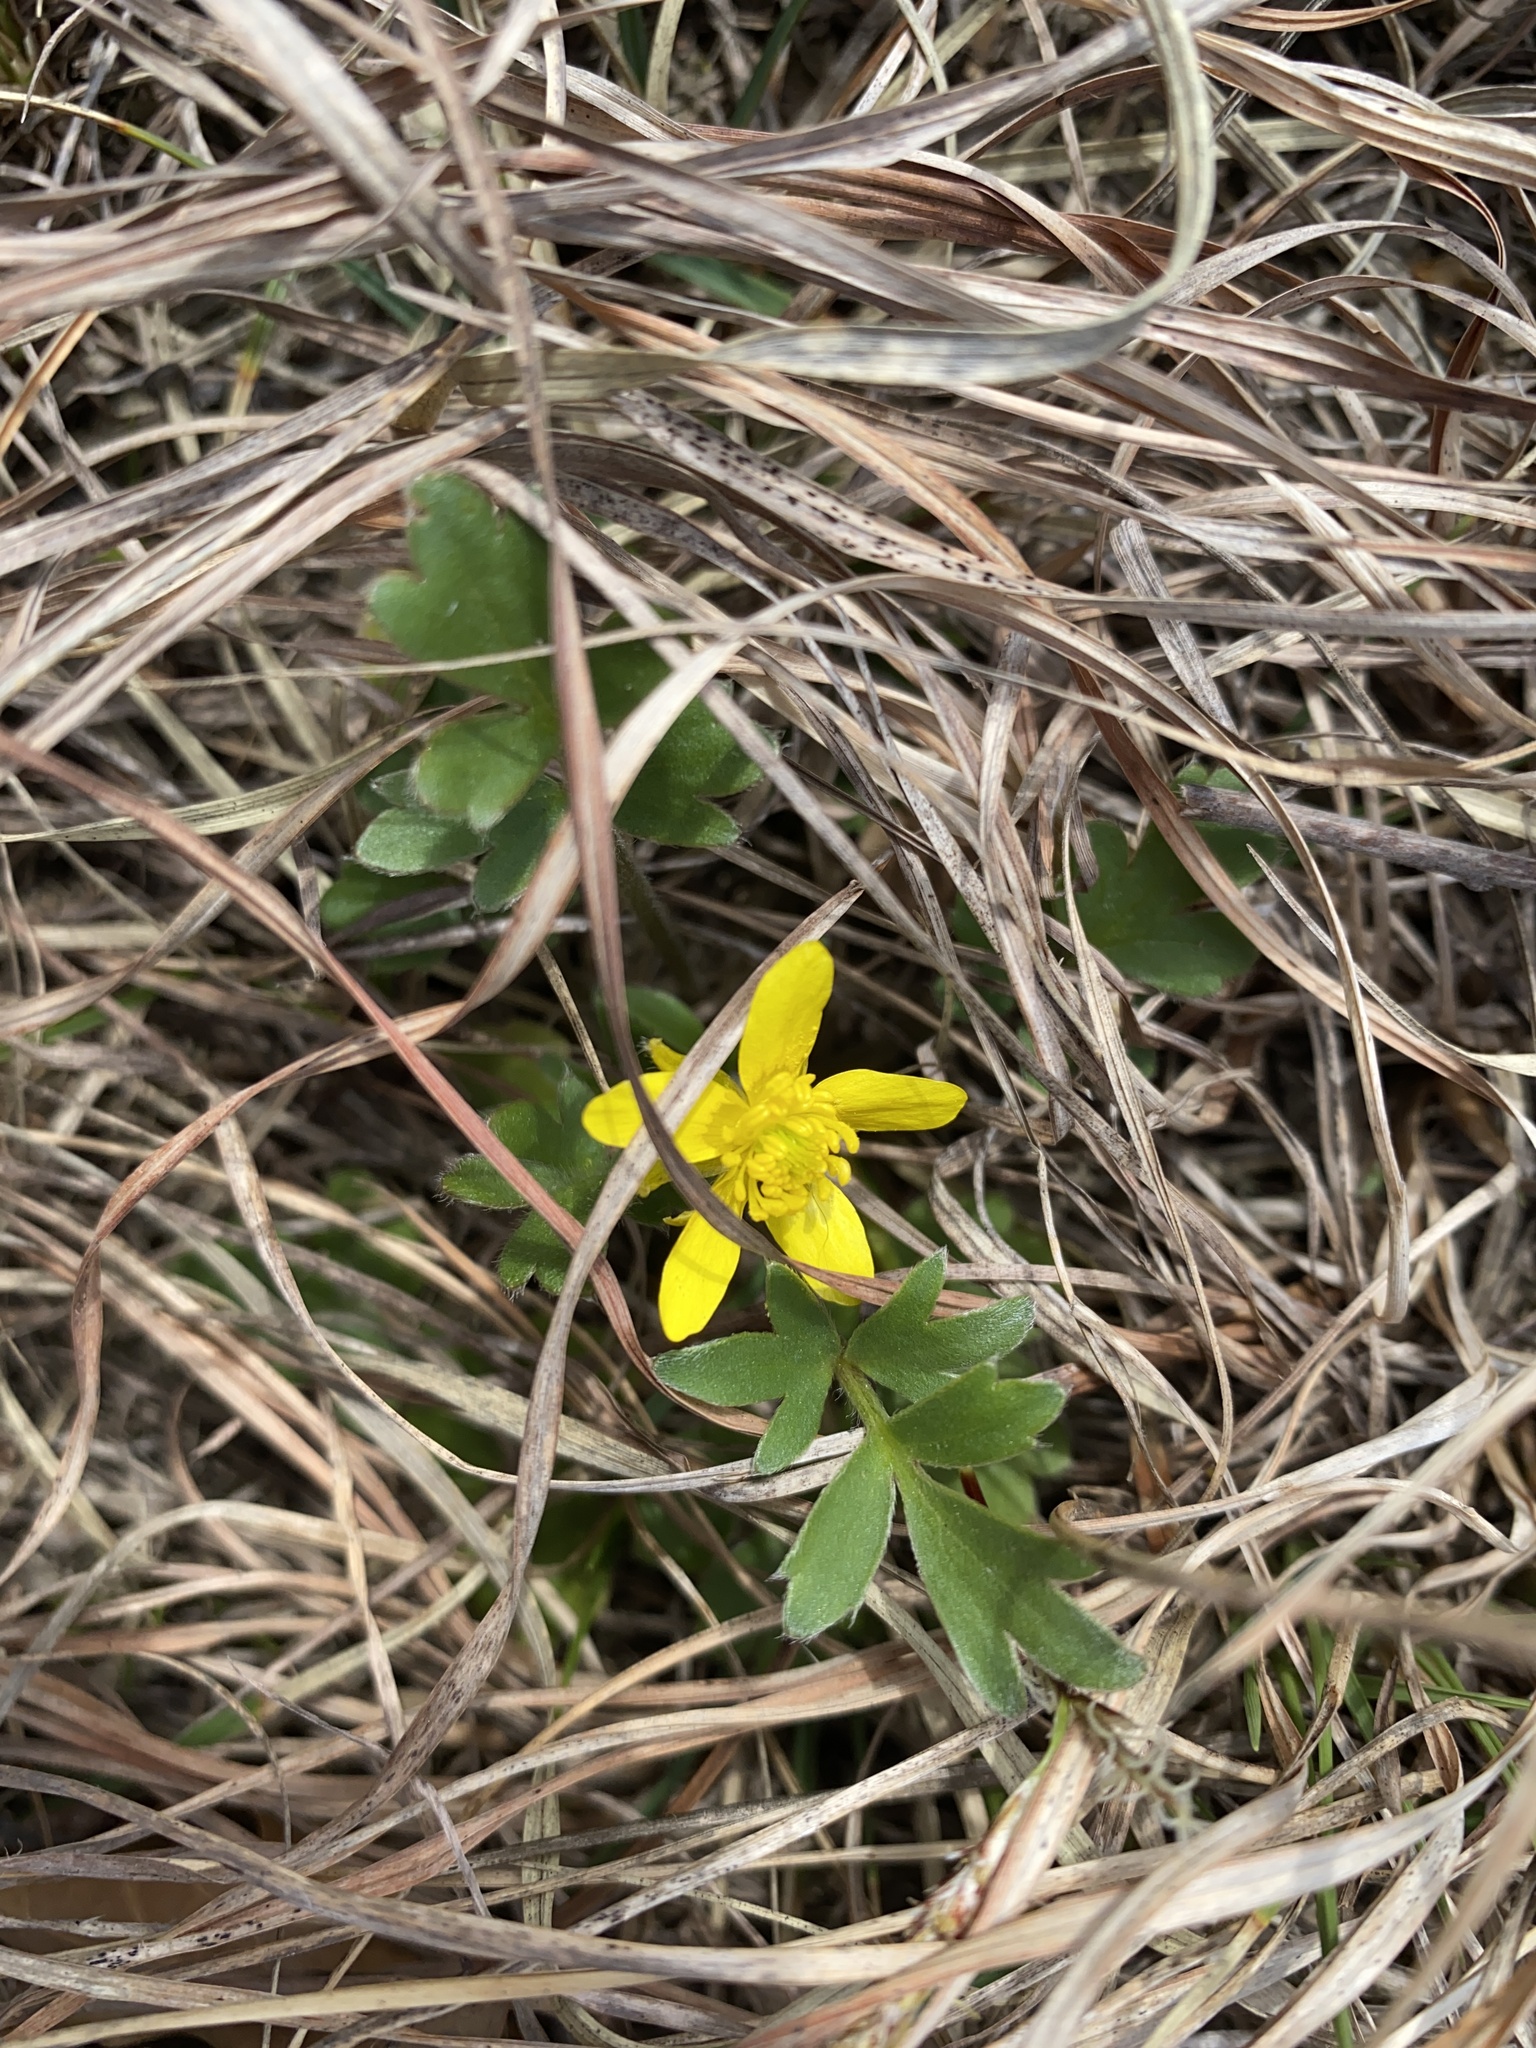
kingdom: Plantae
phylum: Tracheophyta
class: Magnoliopsida
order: Ranunculales
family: Ranunculaceae
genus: Ranunculus
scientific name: Ranunculus fascicularis
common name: Early buttercup
